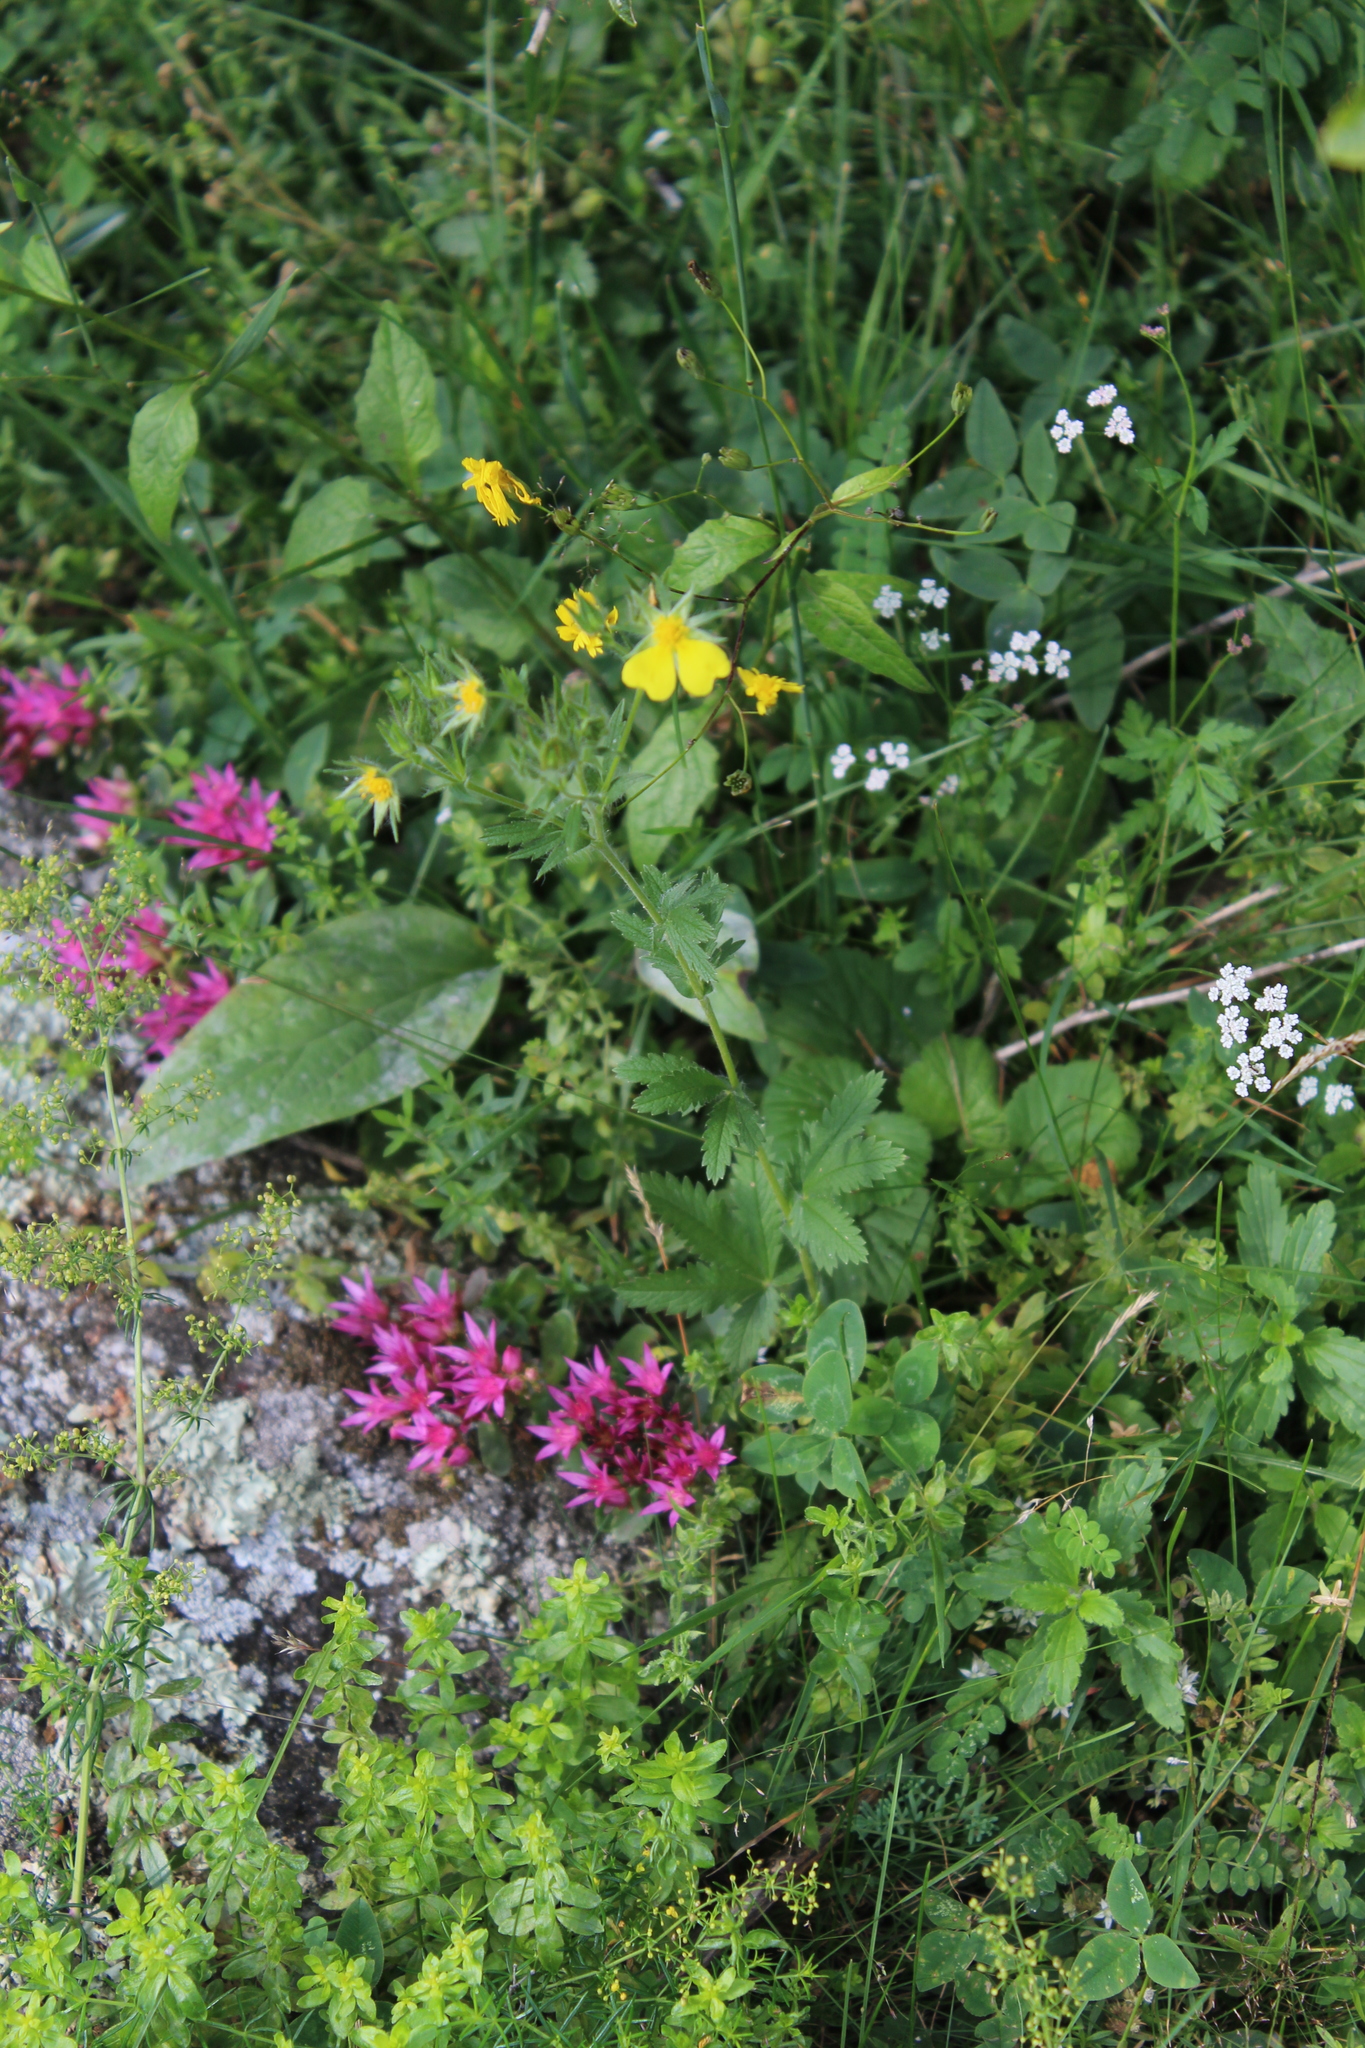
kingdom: Plantae
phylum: Tracheophyta
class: Magnoliopsida
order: Rosales
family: Rosaceae
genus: Potentilla
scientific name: Potentilla recta
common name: Sulphur cinquefoil
